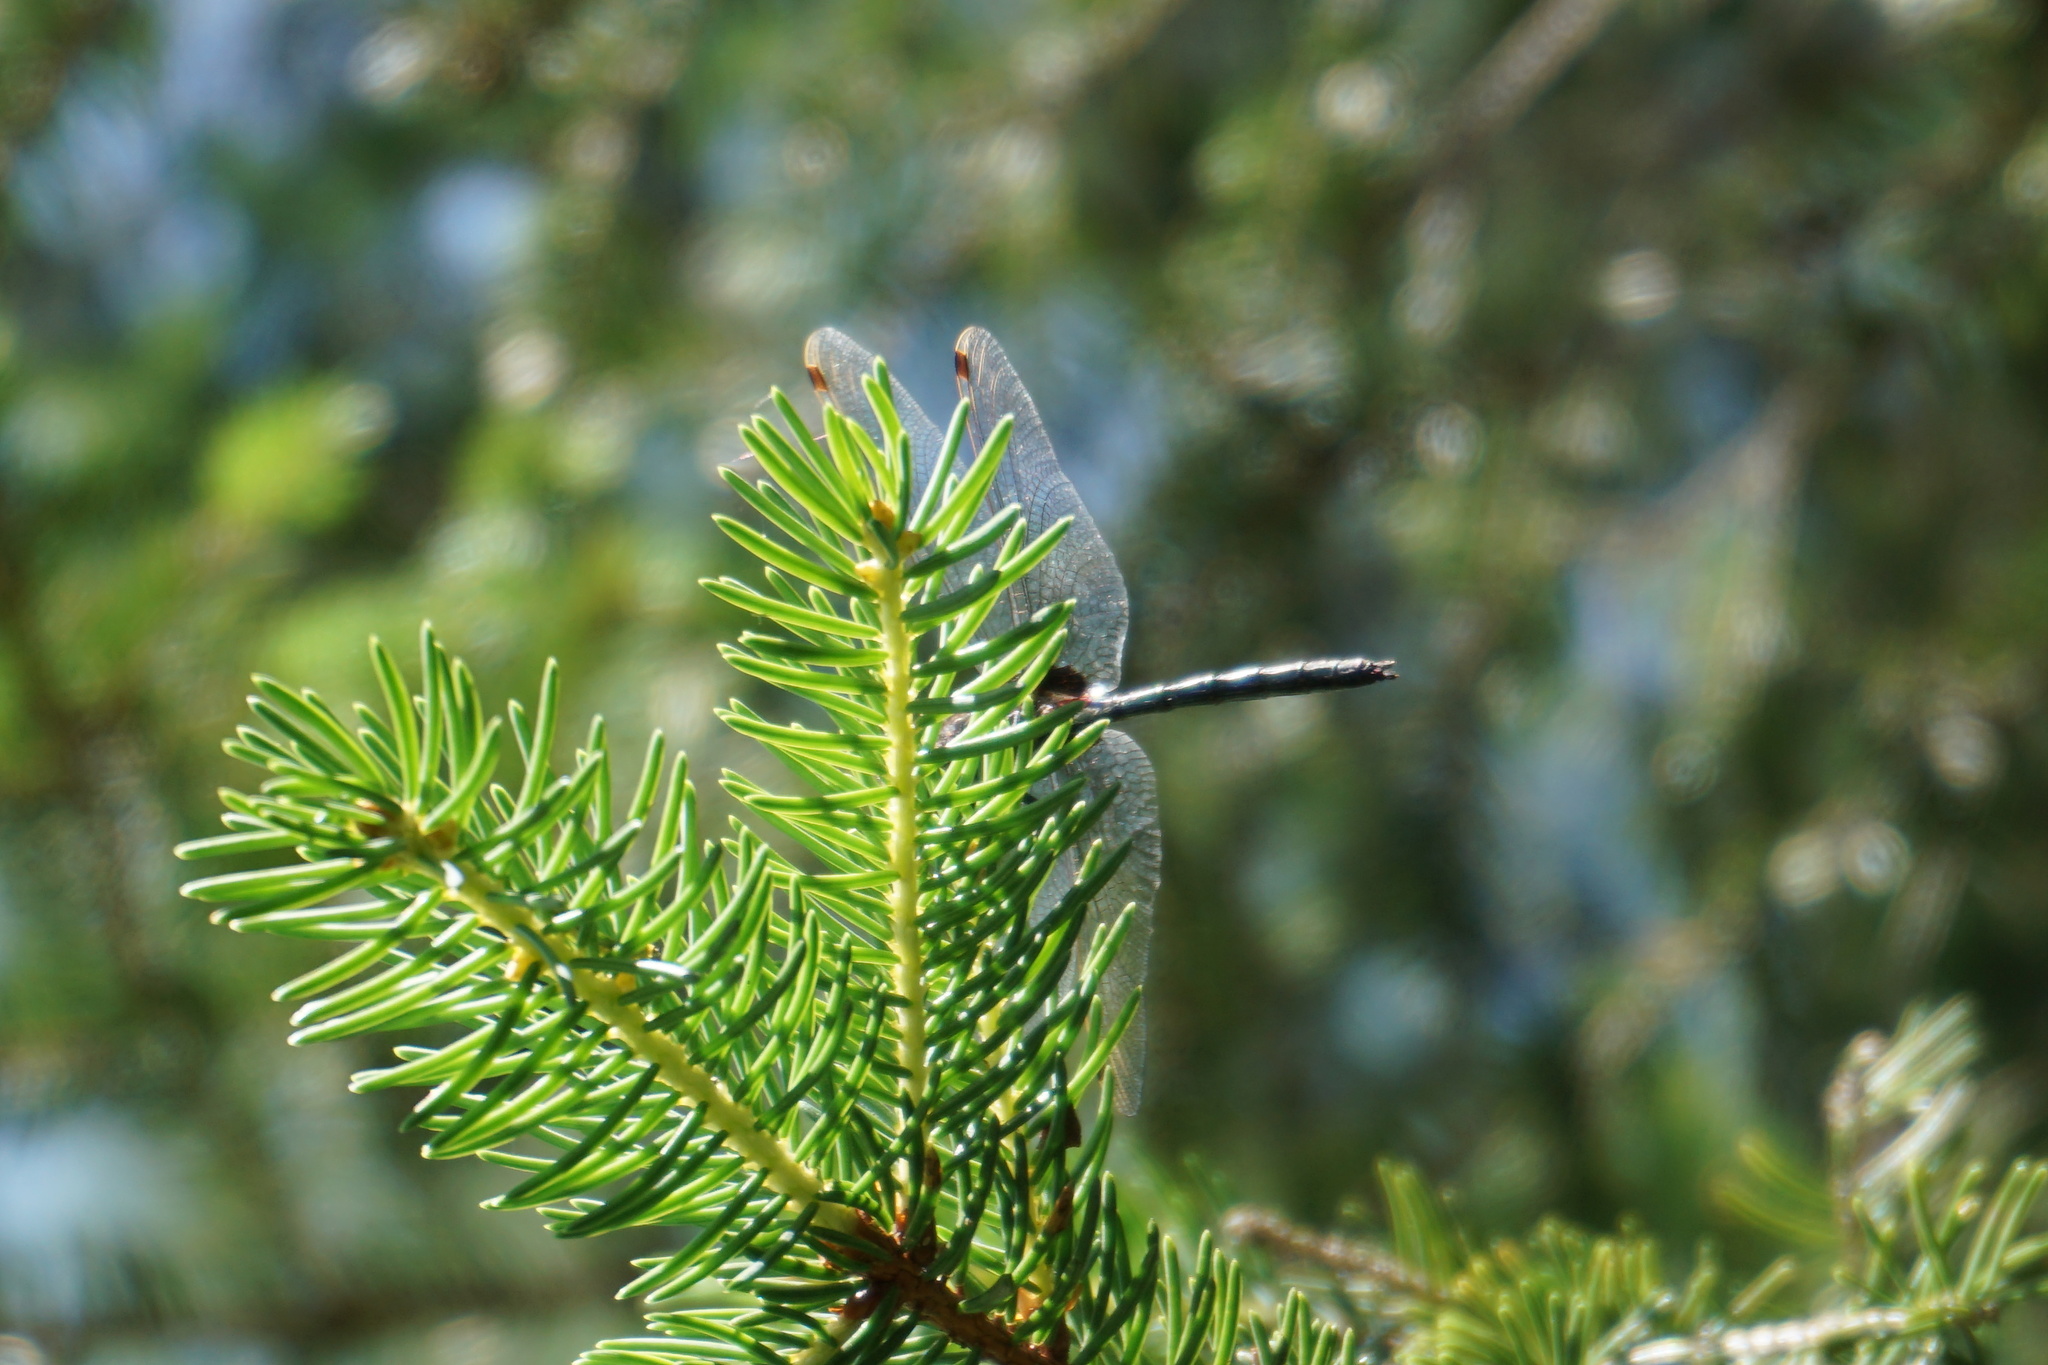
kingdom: Animalia
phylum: Arthropoda
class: Insecta
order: Odonata
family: Libellulidae
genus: Leucorrhinia
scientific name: Leucorrhinia dubia
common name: White-faced darter
